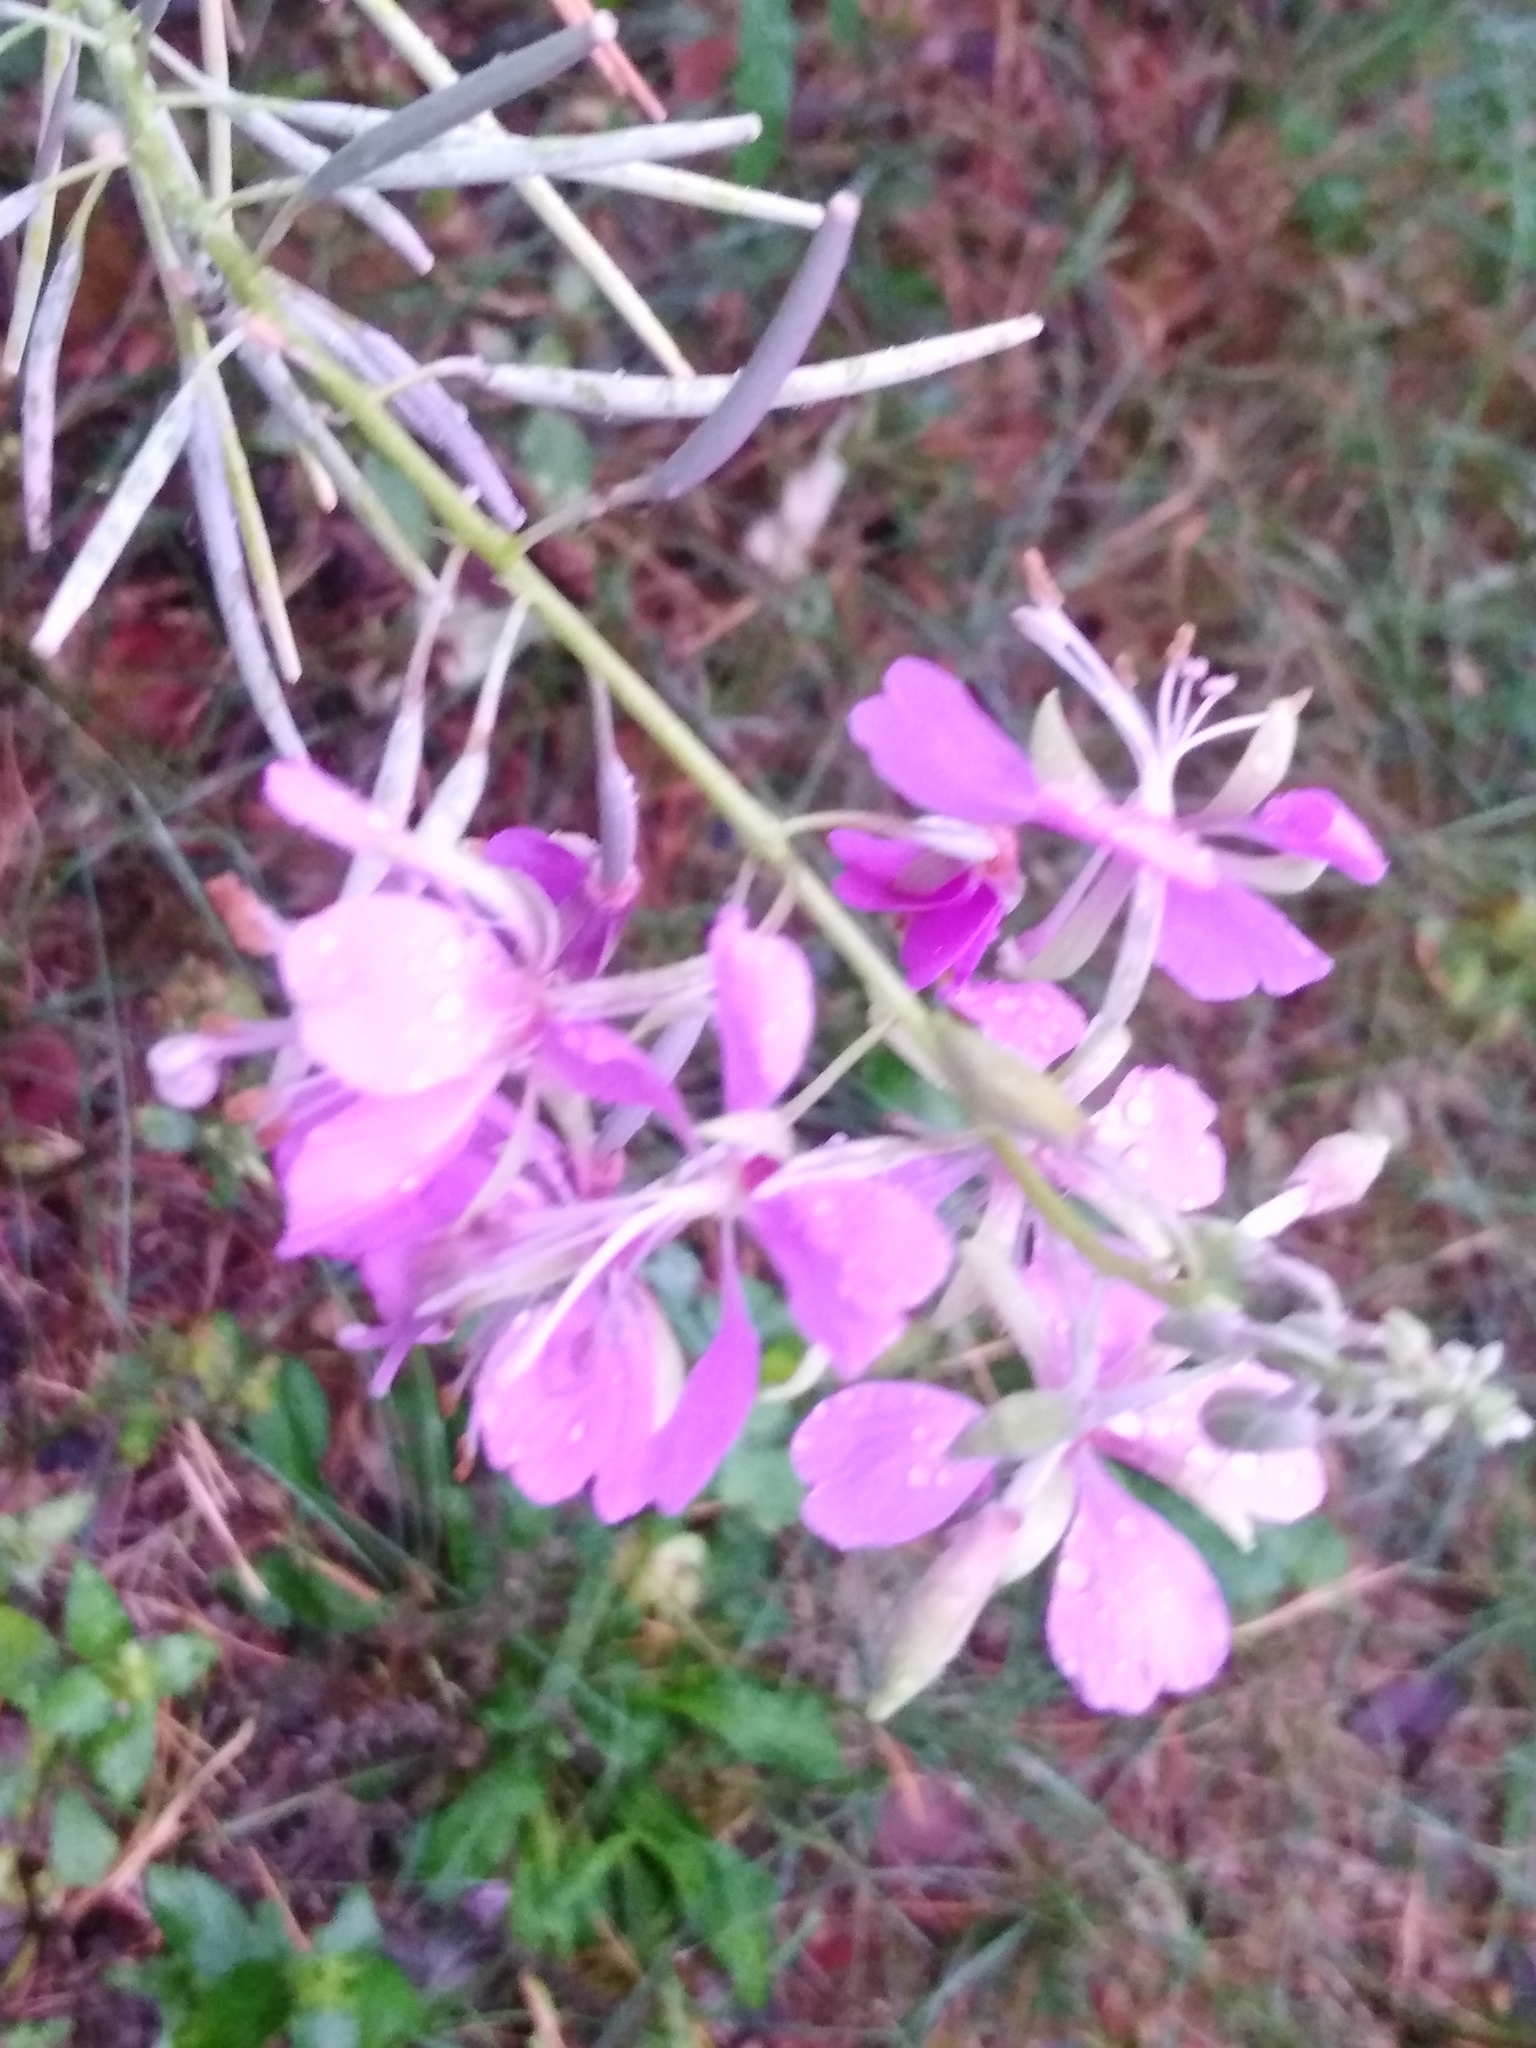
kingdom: Plantae
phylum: Tracheophyta
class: Magnoliopsida
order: Myrtales
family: Onagraceae
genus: Chamaenerion
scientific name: Chamaenerion angustifolium
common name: Fireweed
